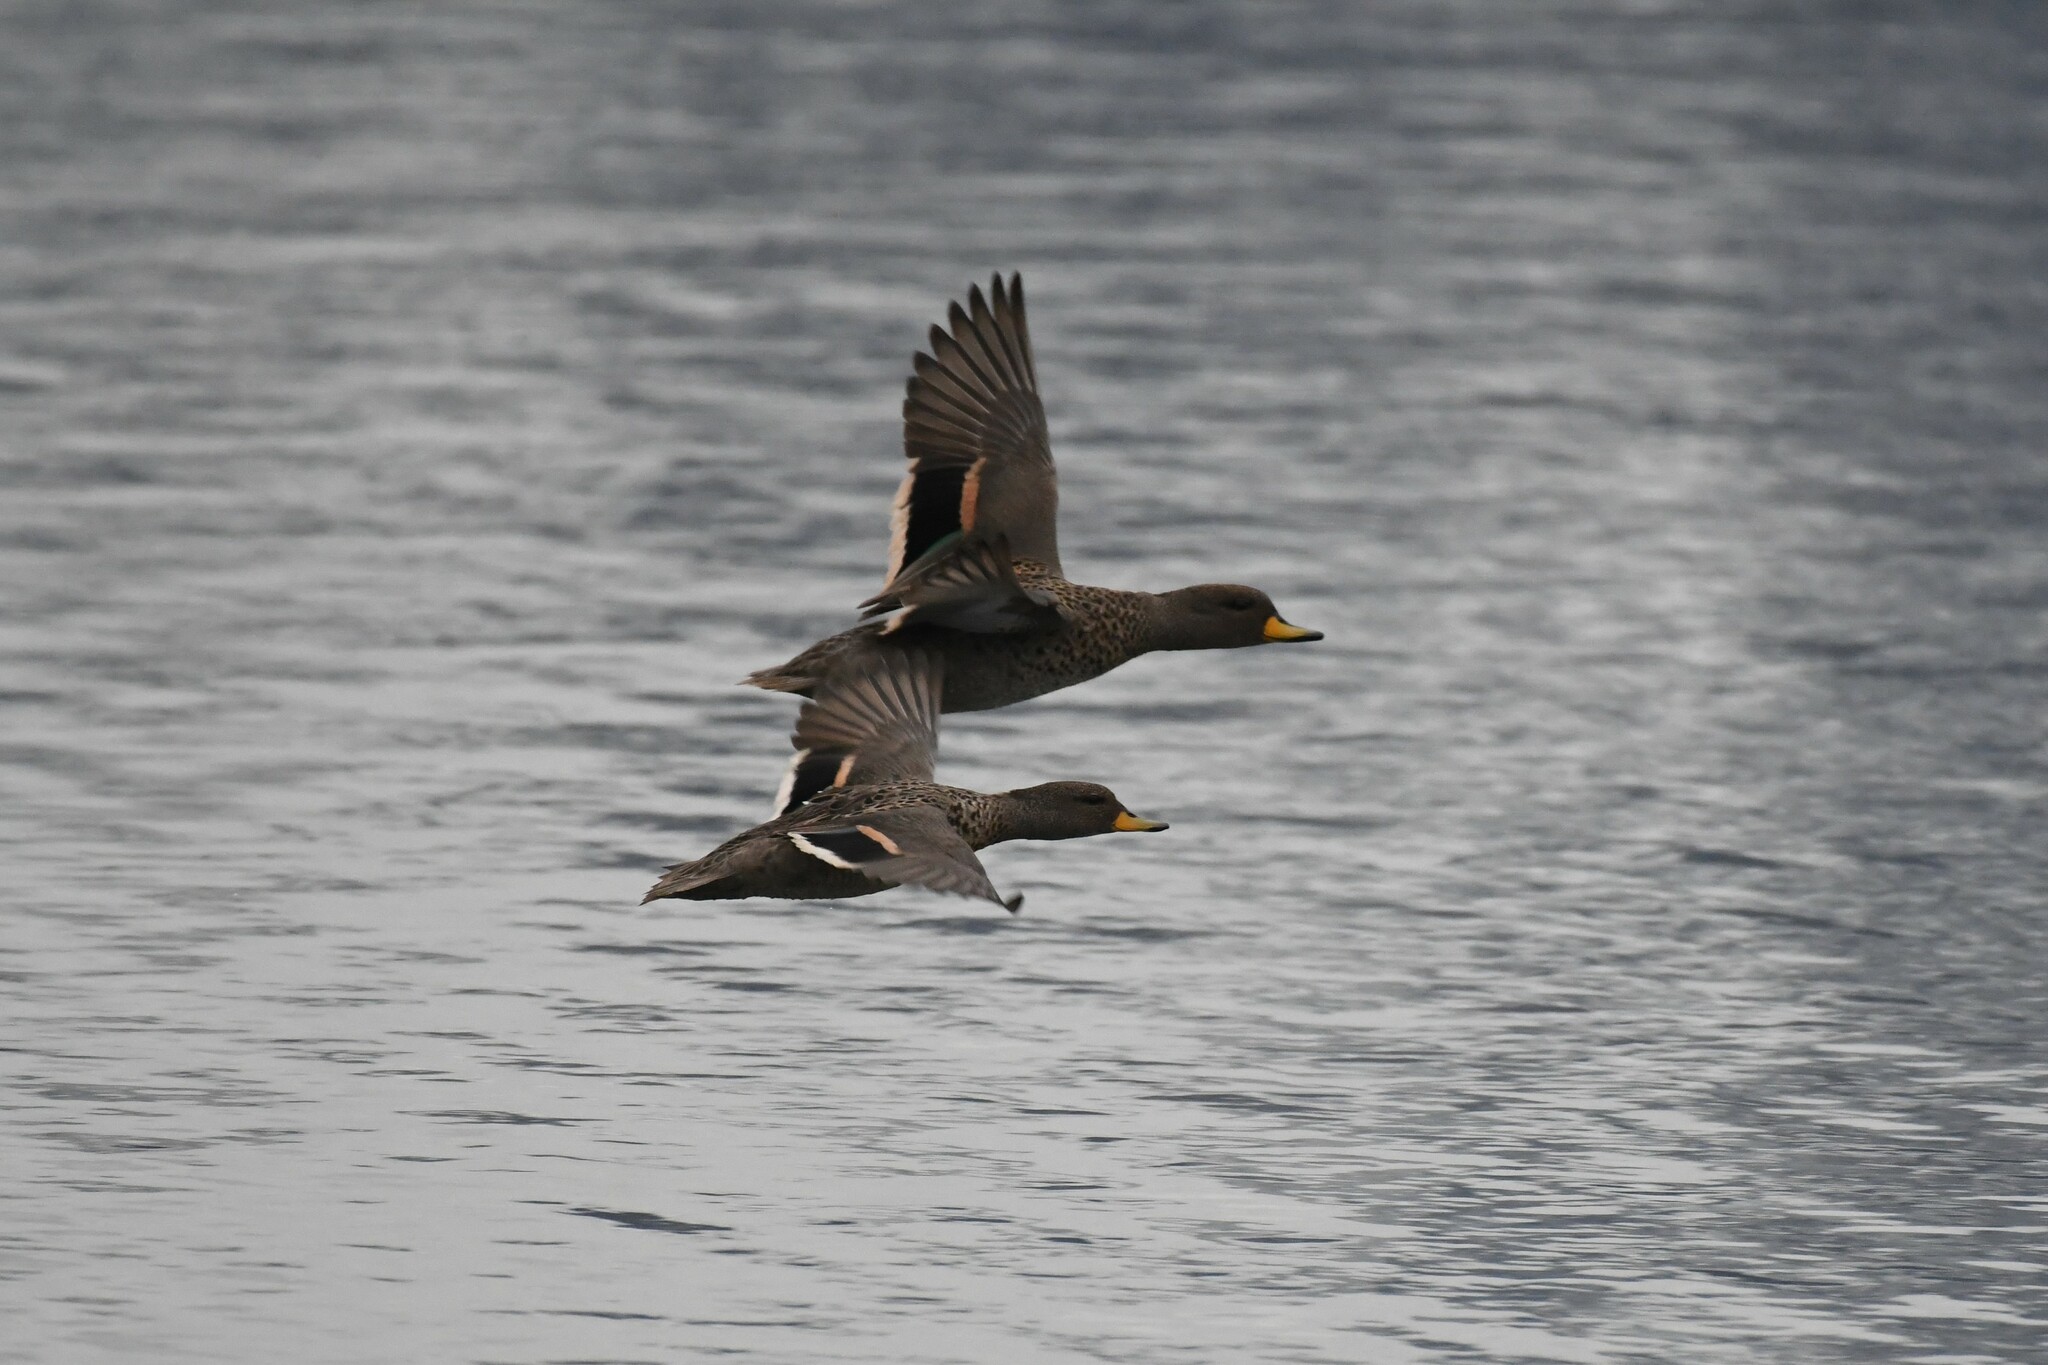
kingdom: Animalia
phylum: Chordata
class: Aves
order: Anseriformes
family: Anatidae
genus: Anas
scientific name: Anas flavirostris
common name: Yellow-billed teal
